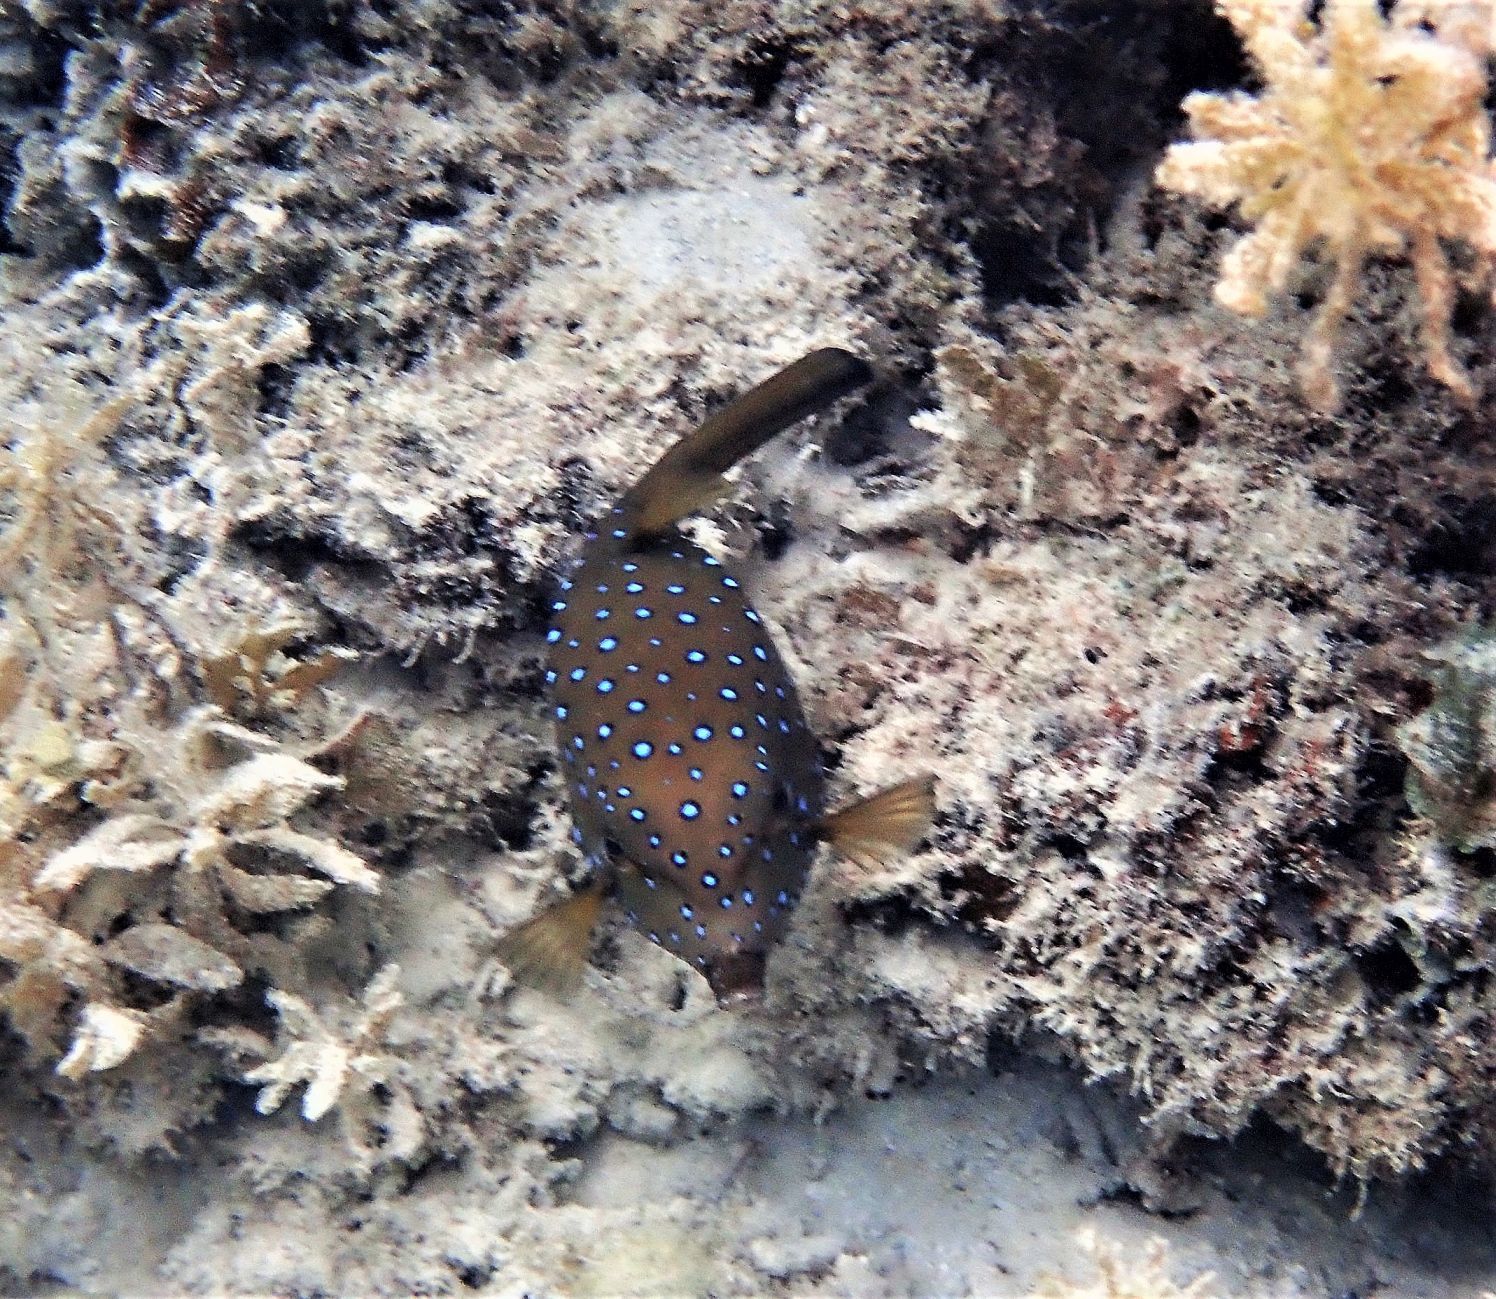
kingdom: Animalia
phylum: Chordata
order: Tetraodontiformes
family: Ostraciidae
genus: Ostracion
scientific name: Ostracion cubicus
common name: Cube trunkfish
